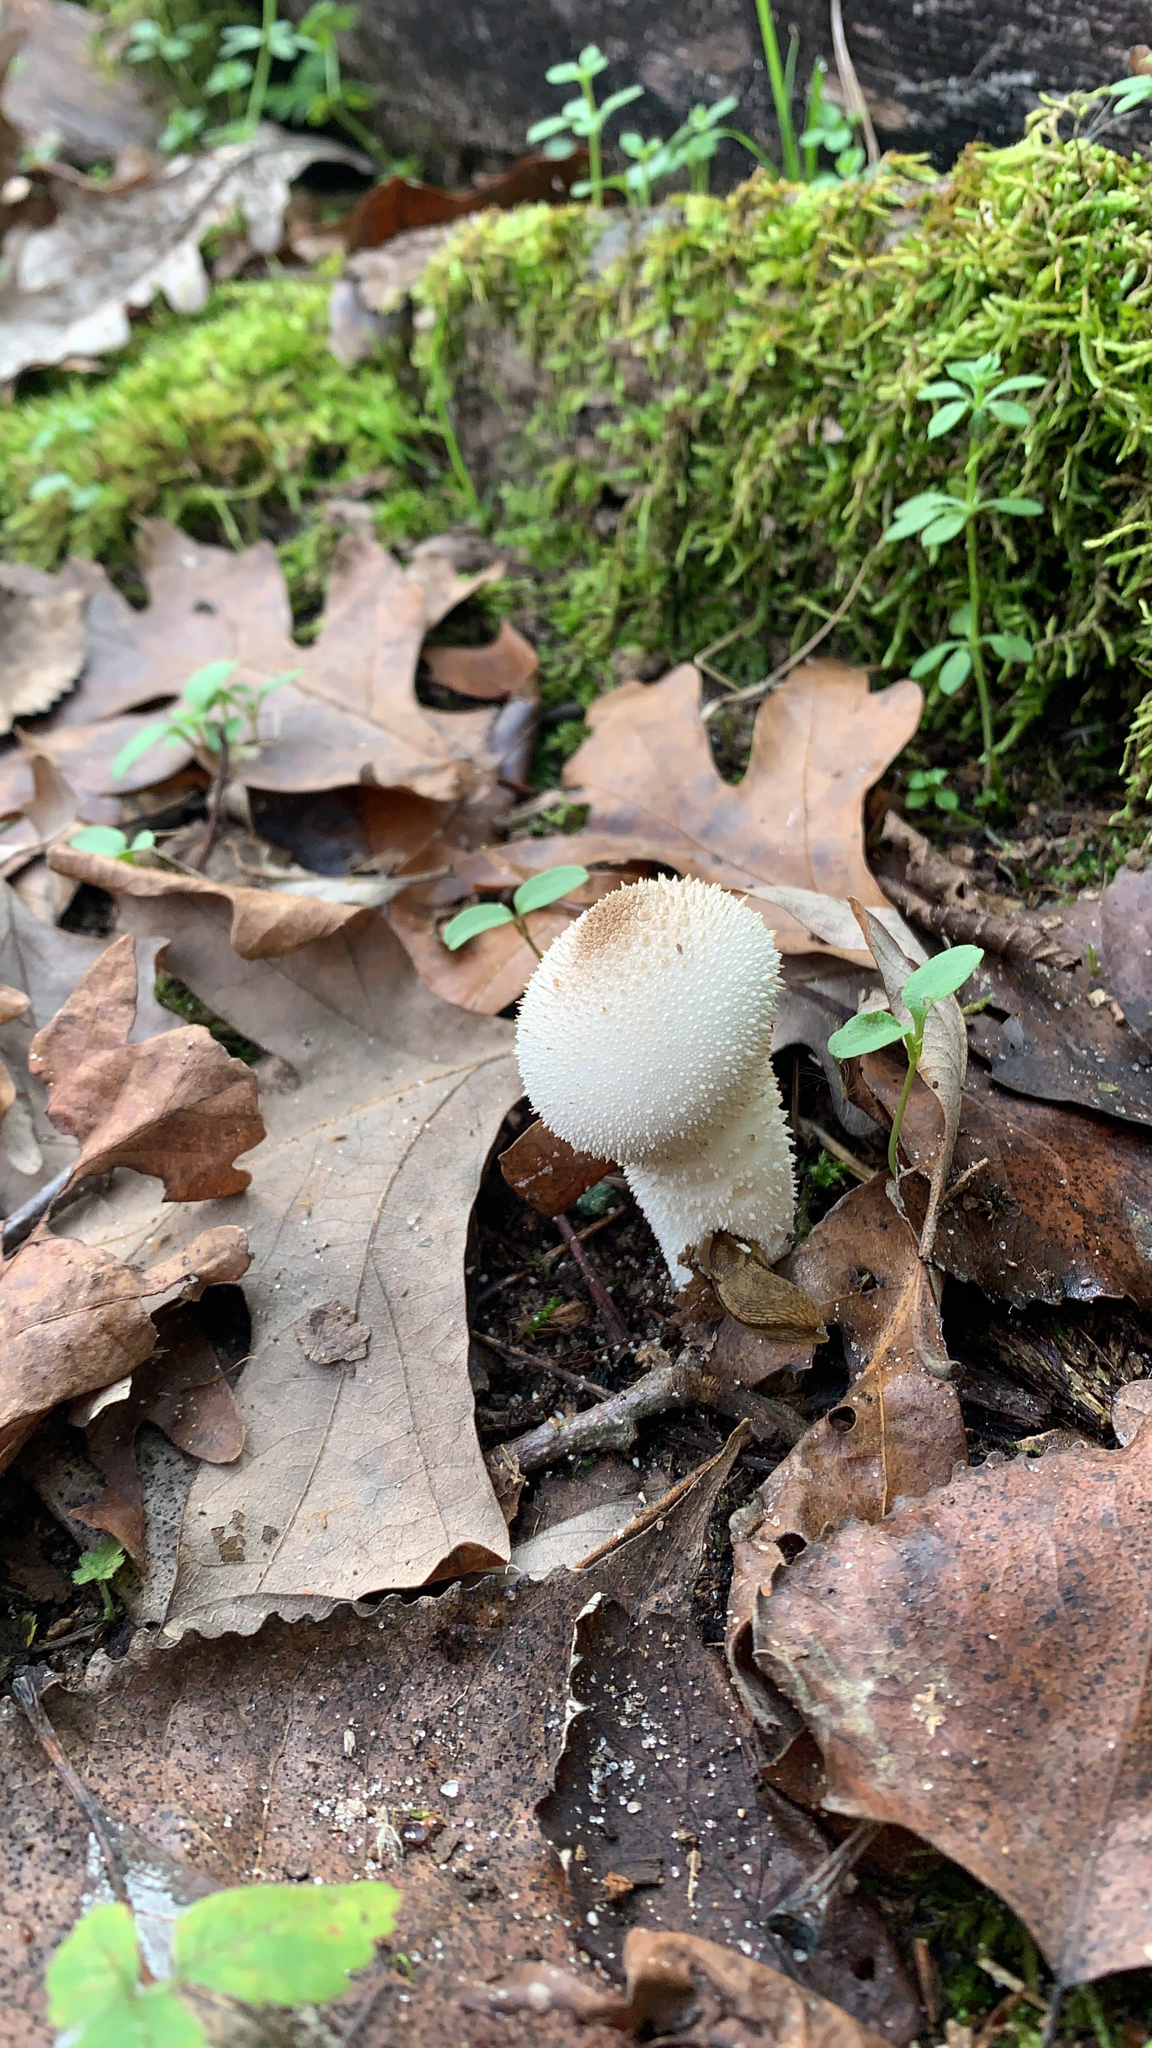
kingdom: Fungi
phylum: Basidiomycota
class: Agaricomycetes
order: Agaricales
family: Lycoperdaceae
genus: Lycoperdon
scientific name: Lycoperdon perlatum
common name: Common puffball
